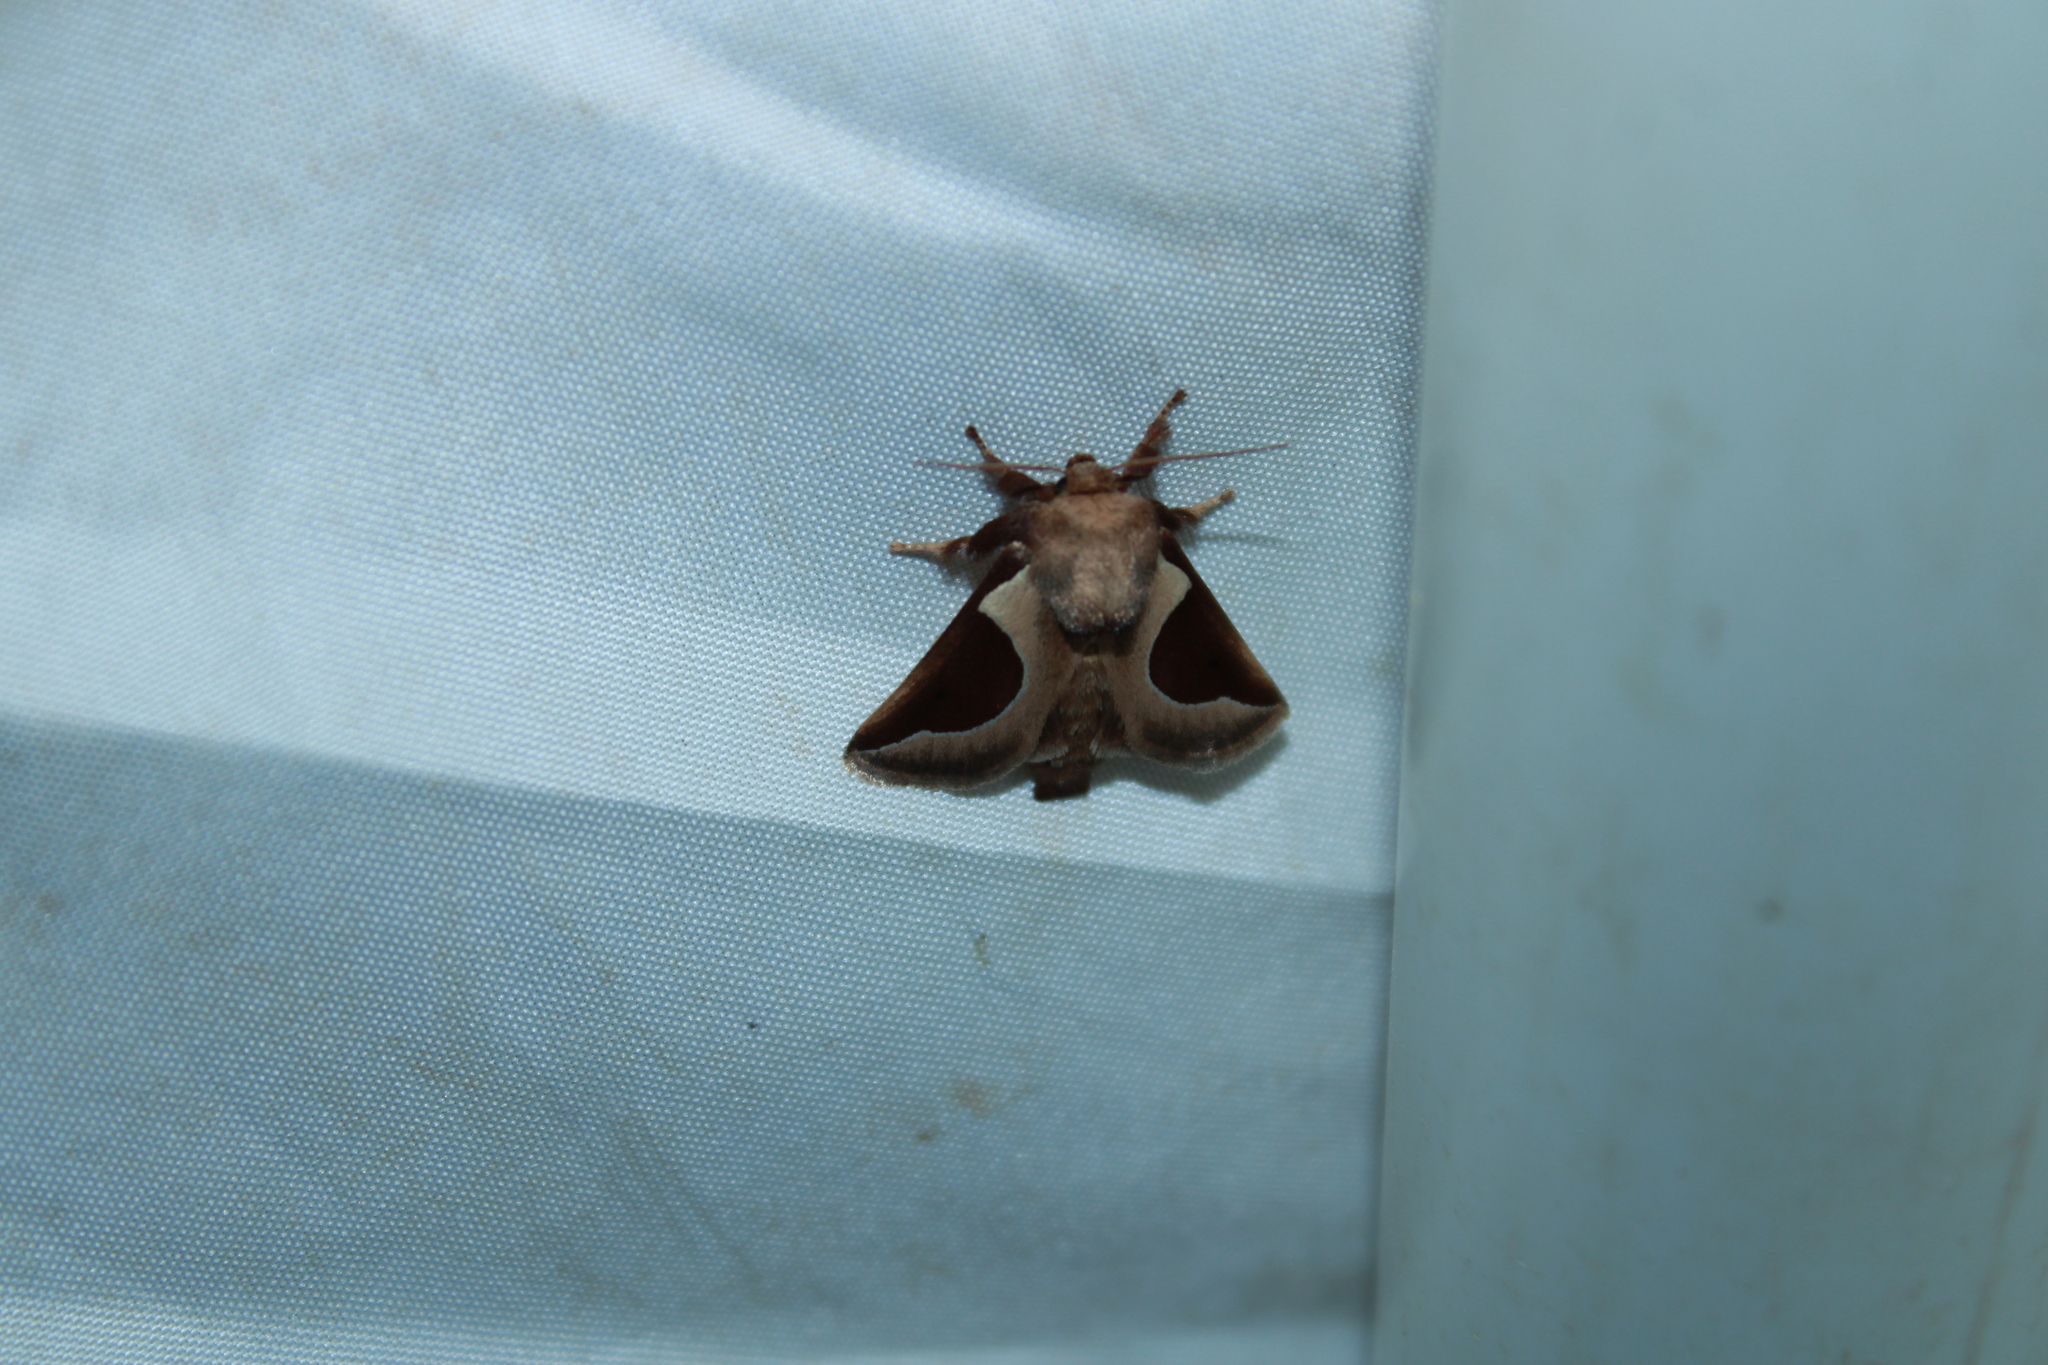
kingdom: Animalia
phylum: Arthropoda
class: Insecta
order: Lepidoptera
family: Limacodidae
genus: Prolimacodes
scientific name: Prolimacodes badia
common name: Skiff moth
